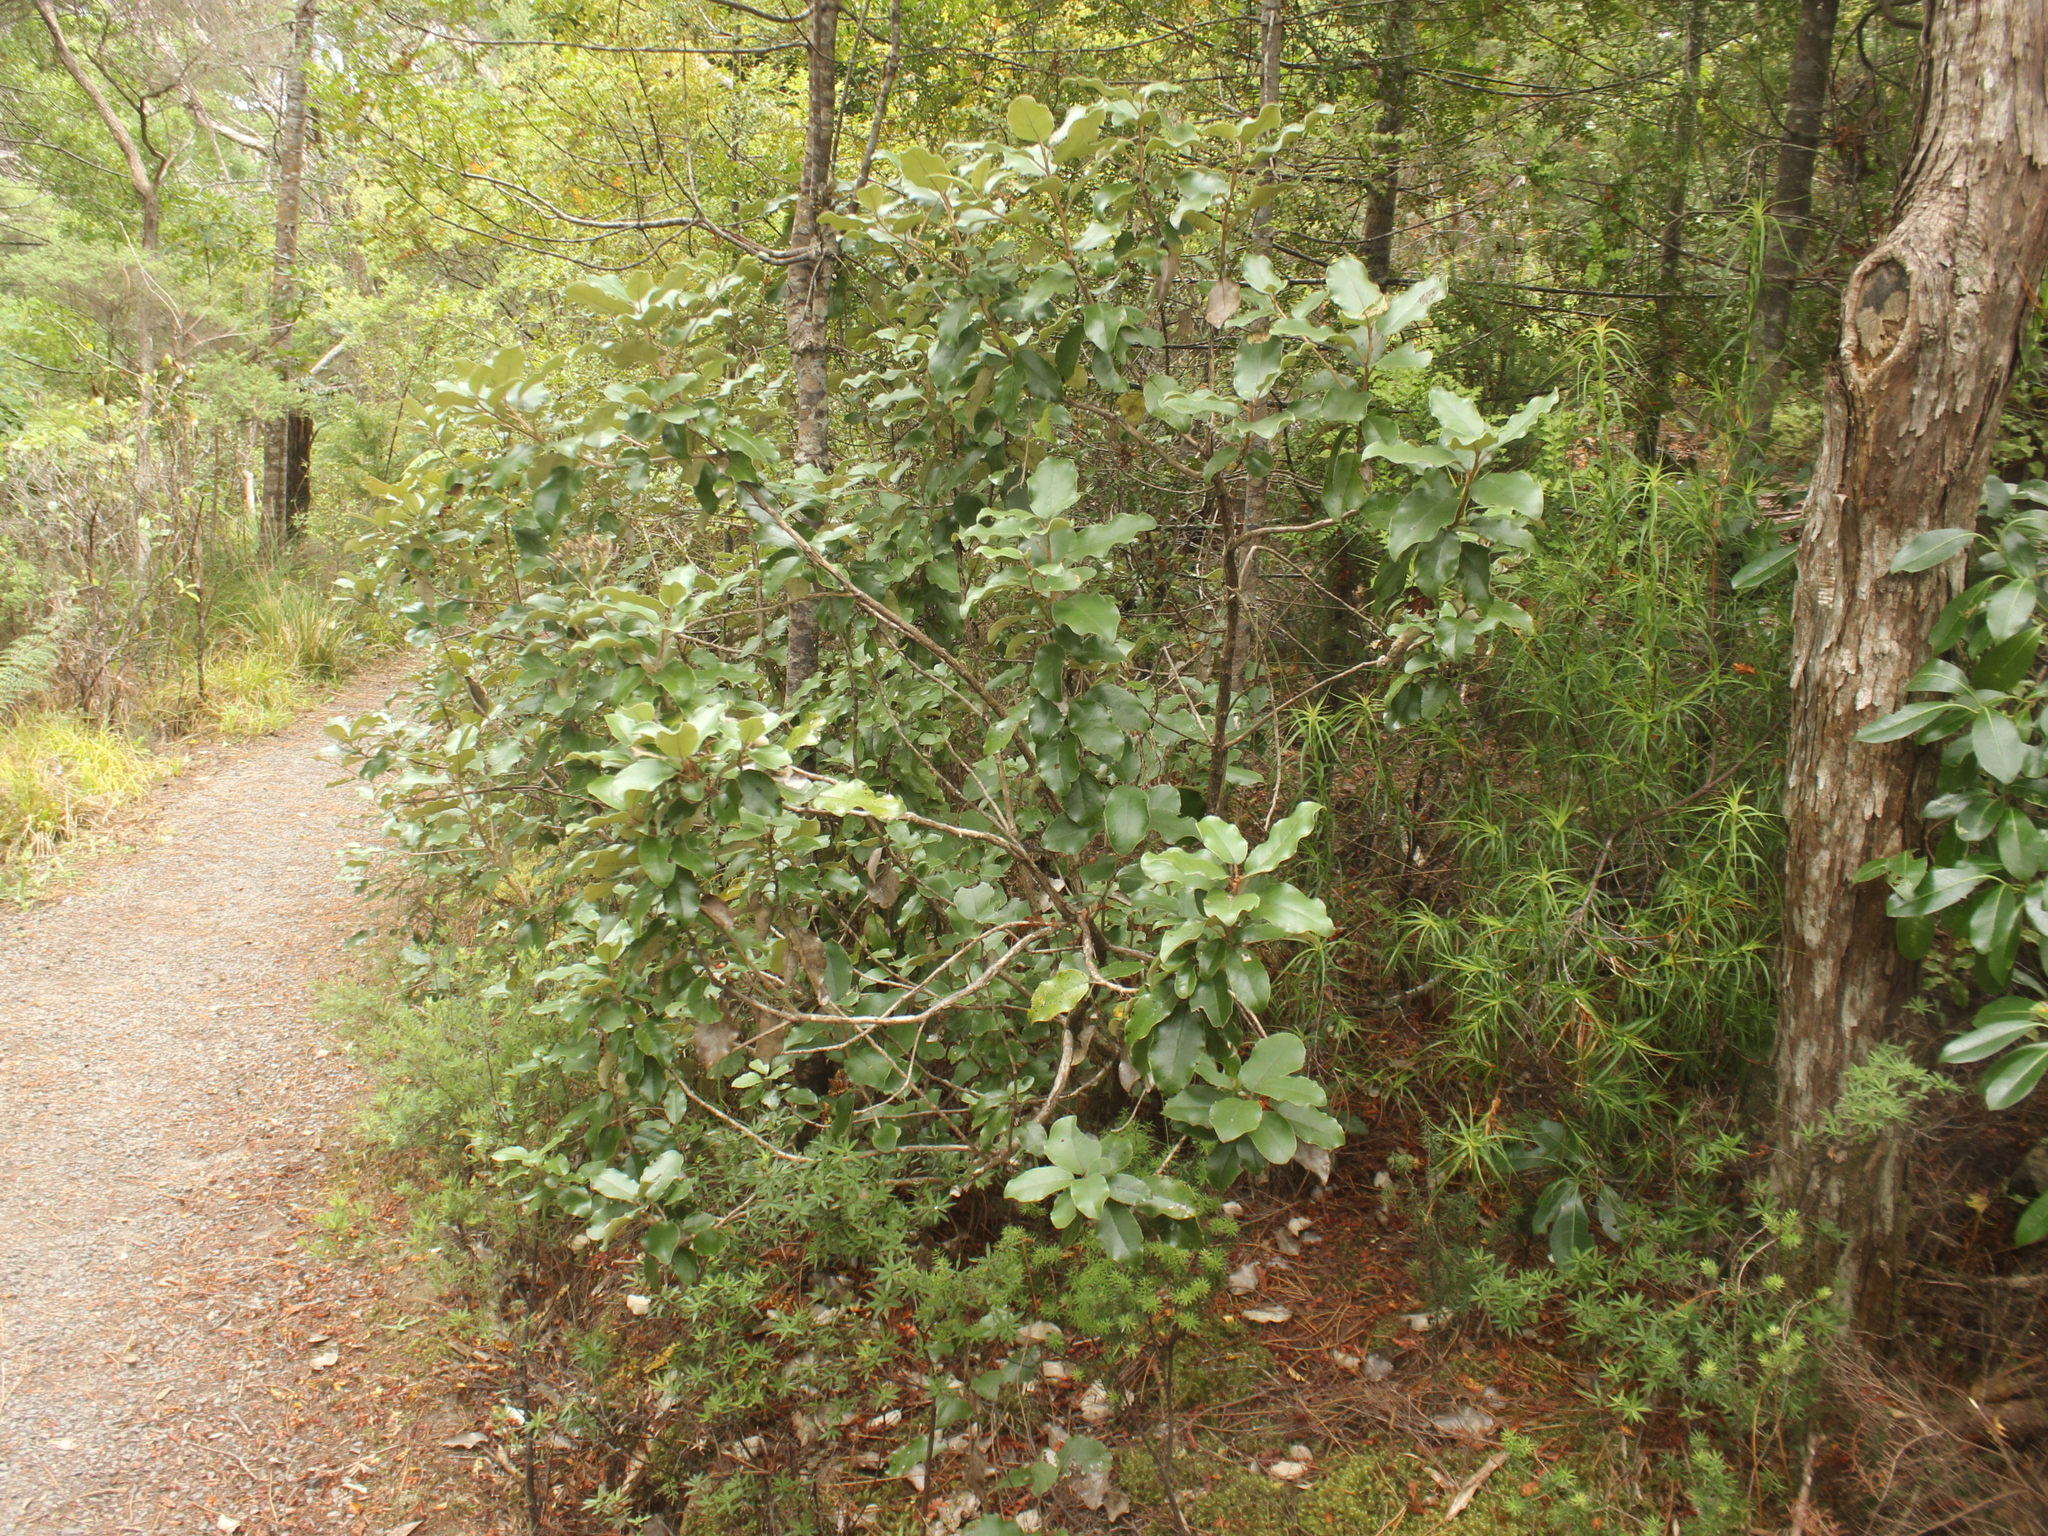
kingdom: Plantae
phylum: Tracheophyta
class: Magnoliopsida
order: Asterales
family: Asteraceae
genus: Olearia
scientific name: Olearia furfuracea
